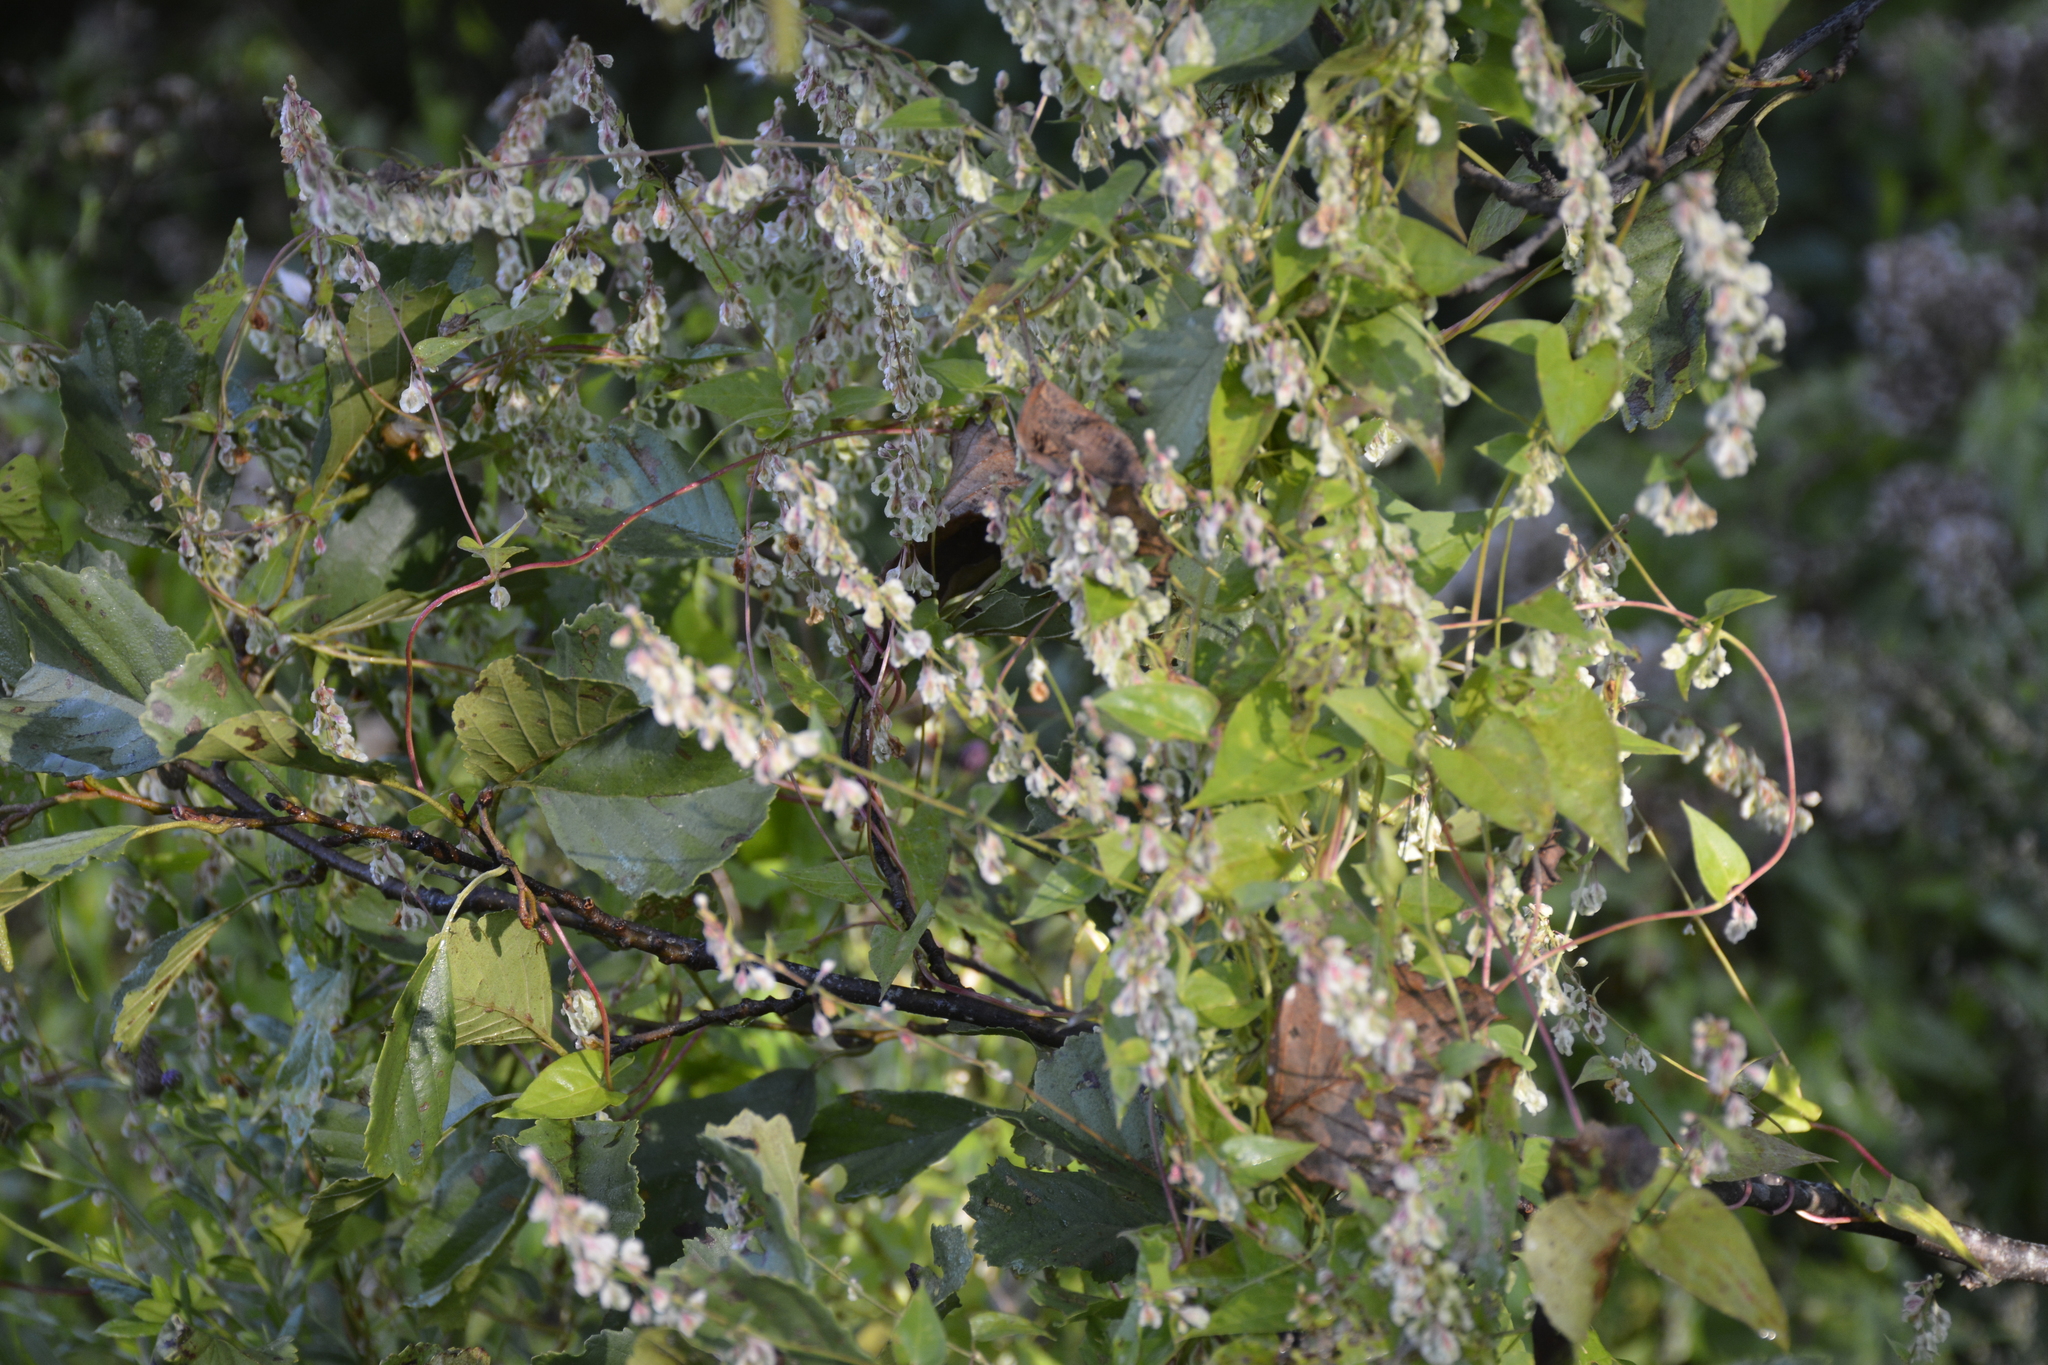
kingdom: Plantae
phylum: Tracheophyta
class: Magnoliopsida
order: Caryophyllales
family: Polygonaceae
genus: Fallopia
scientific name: Fallopia dumetorum
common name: Copse-bindweed
